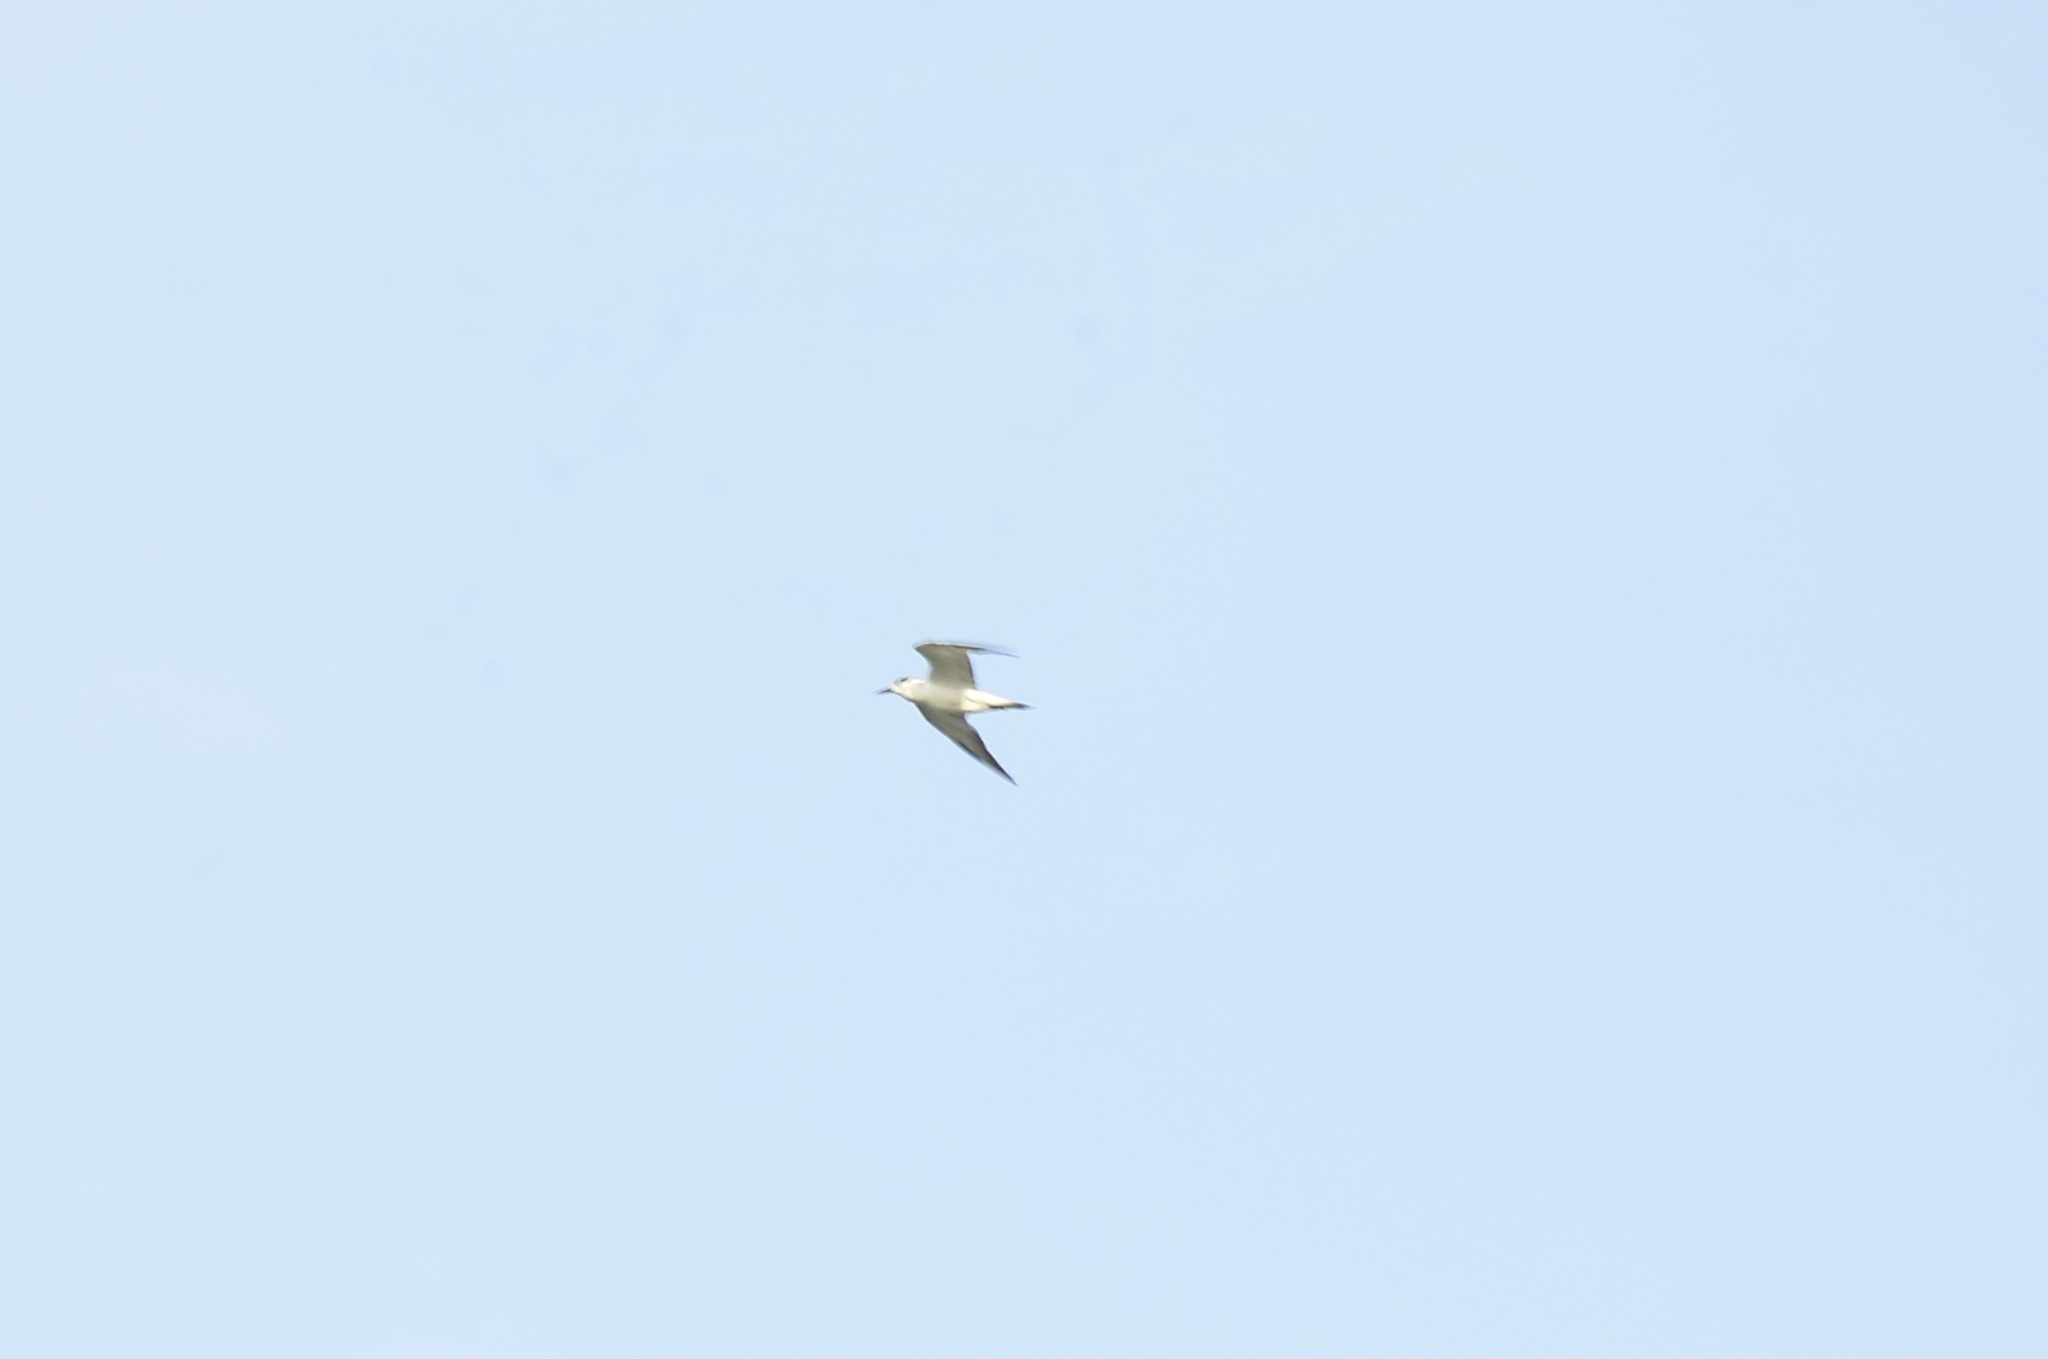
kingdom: Animalia
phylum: Chordata
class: Aves
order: Charadriiformes
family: Laridae
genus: Chlidonias
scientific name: Chlidonias hybrida
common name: Whiskered tern
